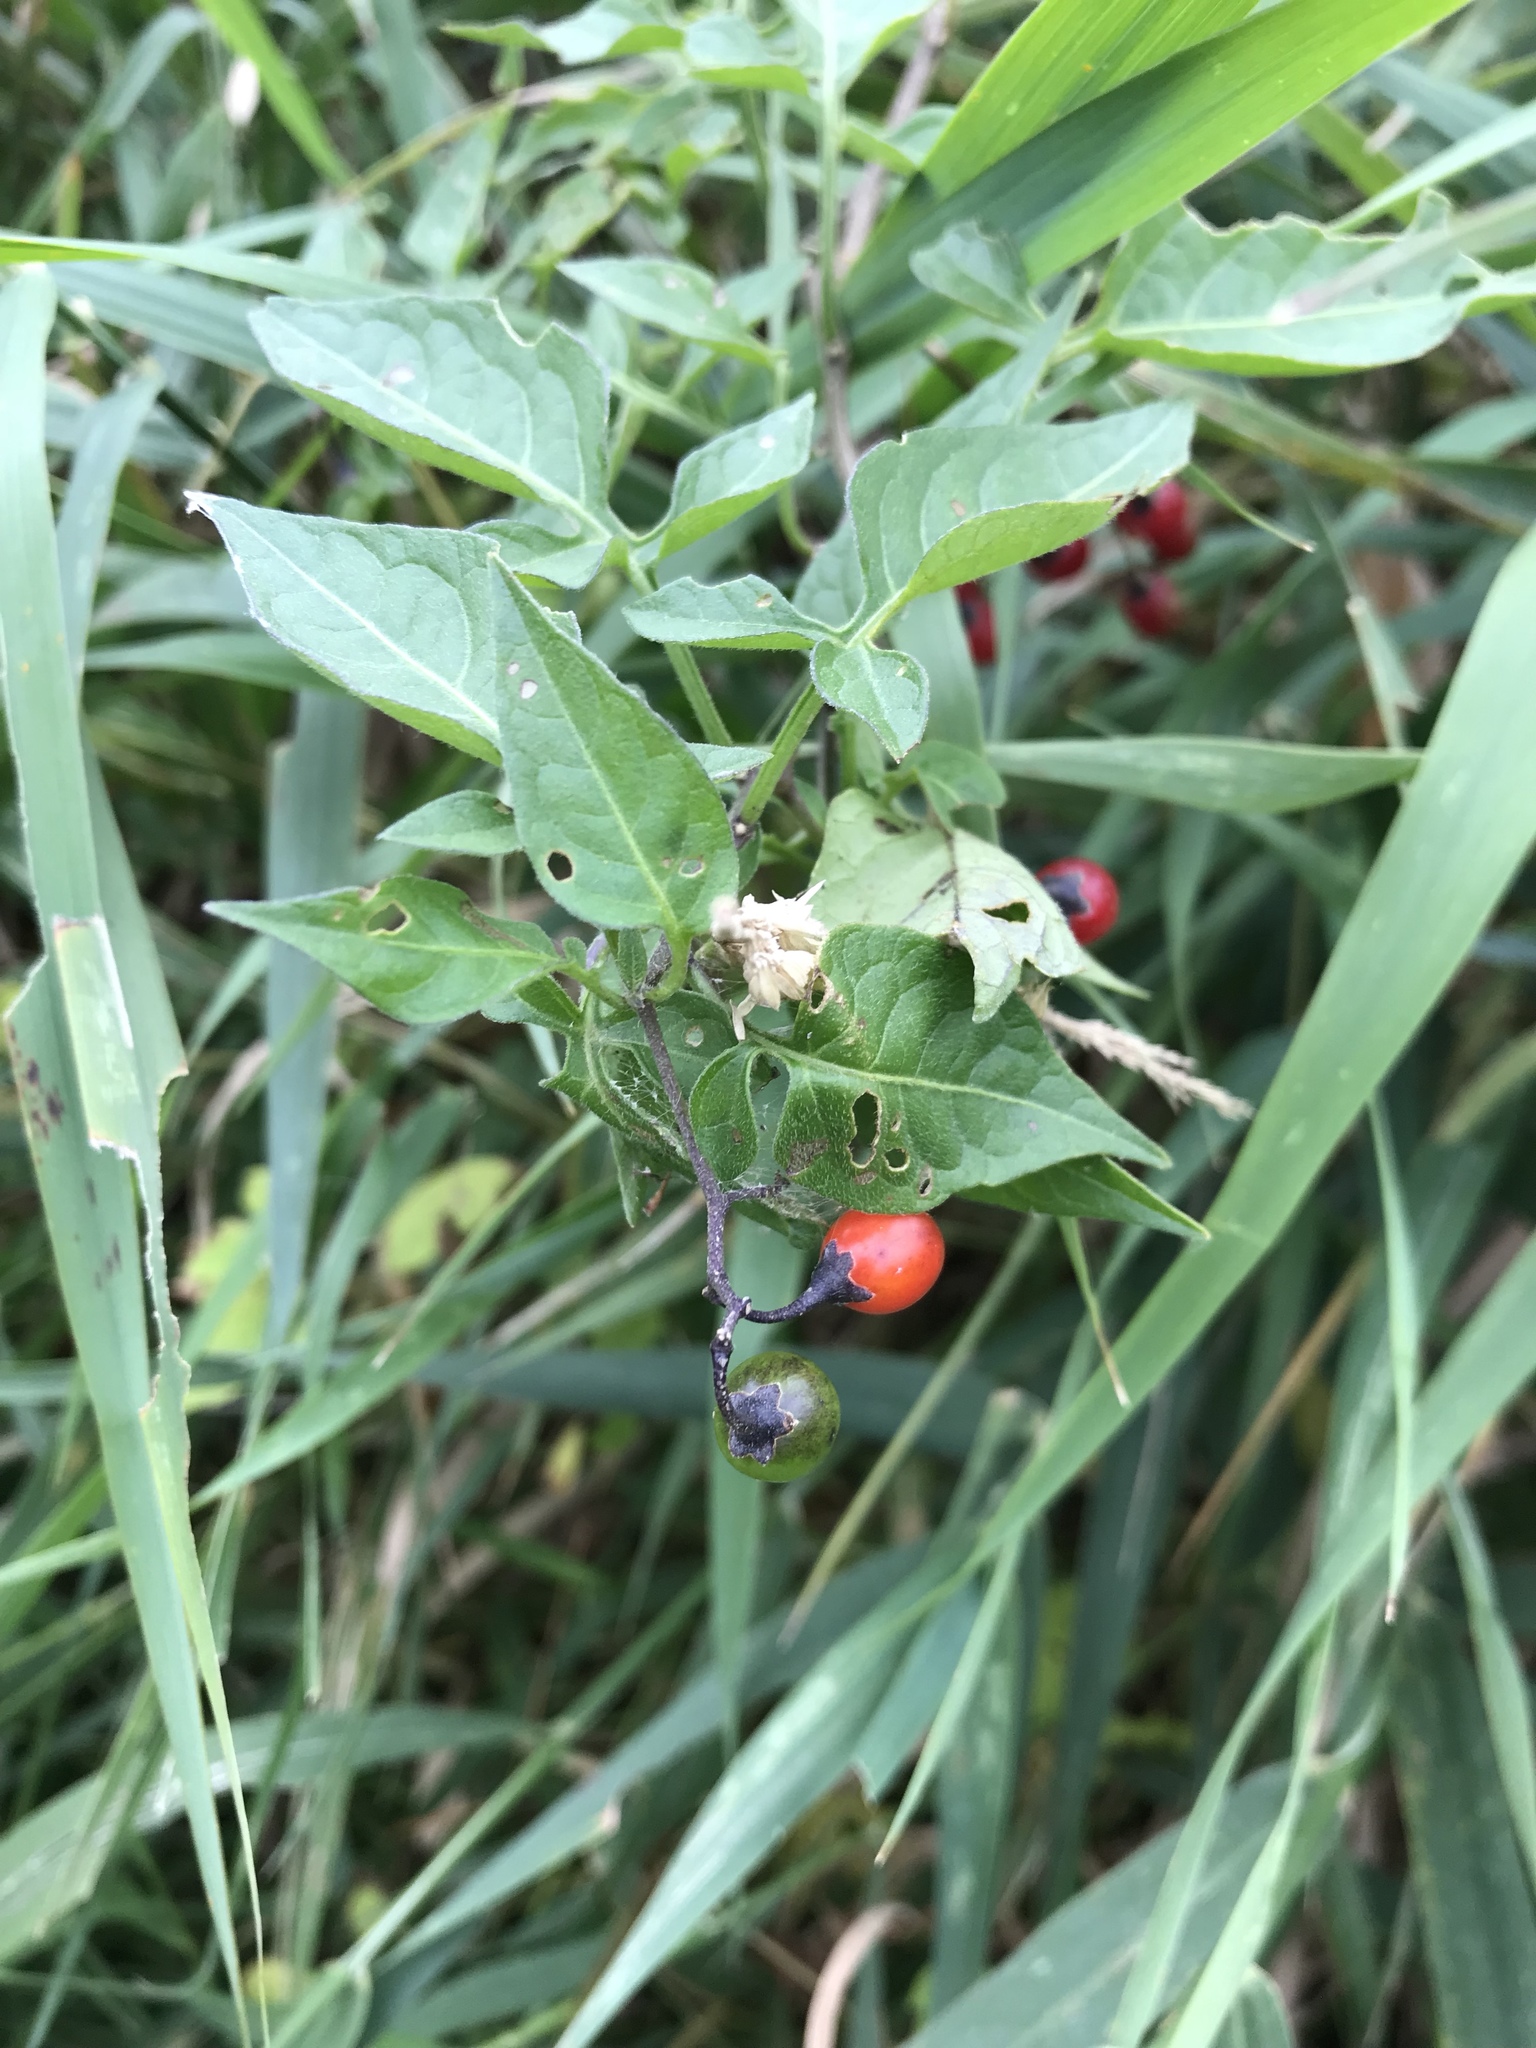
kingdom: Plantae
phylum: Tracheophyta
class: Magnoliopsida
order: Solanales
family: Solanaceae
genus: Solanum
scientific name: Solanum dulcamara
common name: Climbing nightshade
